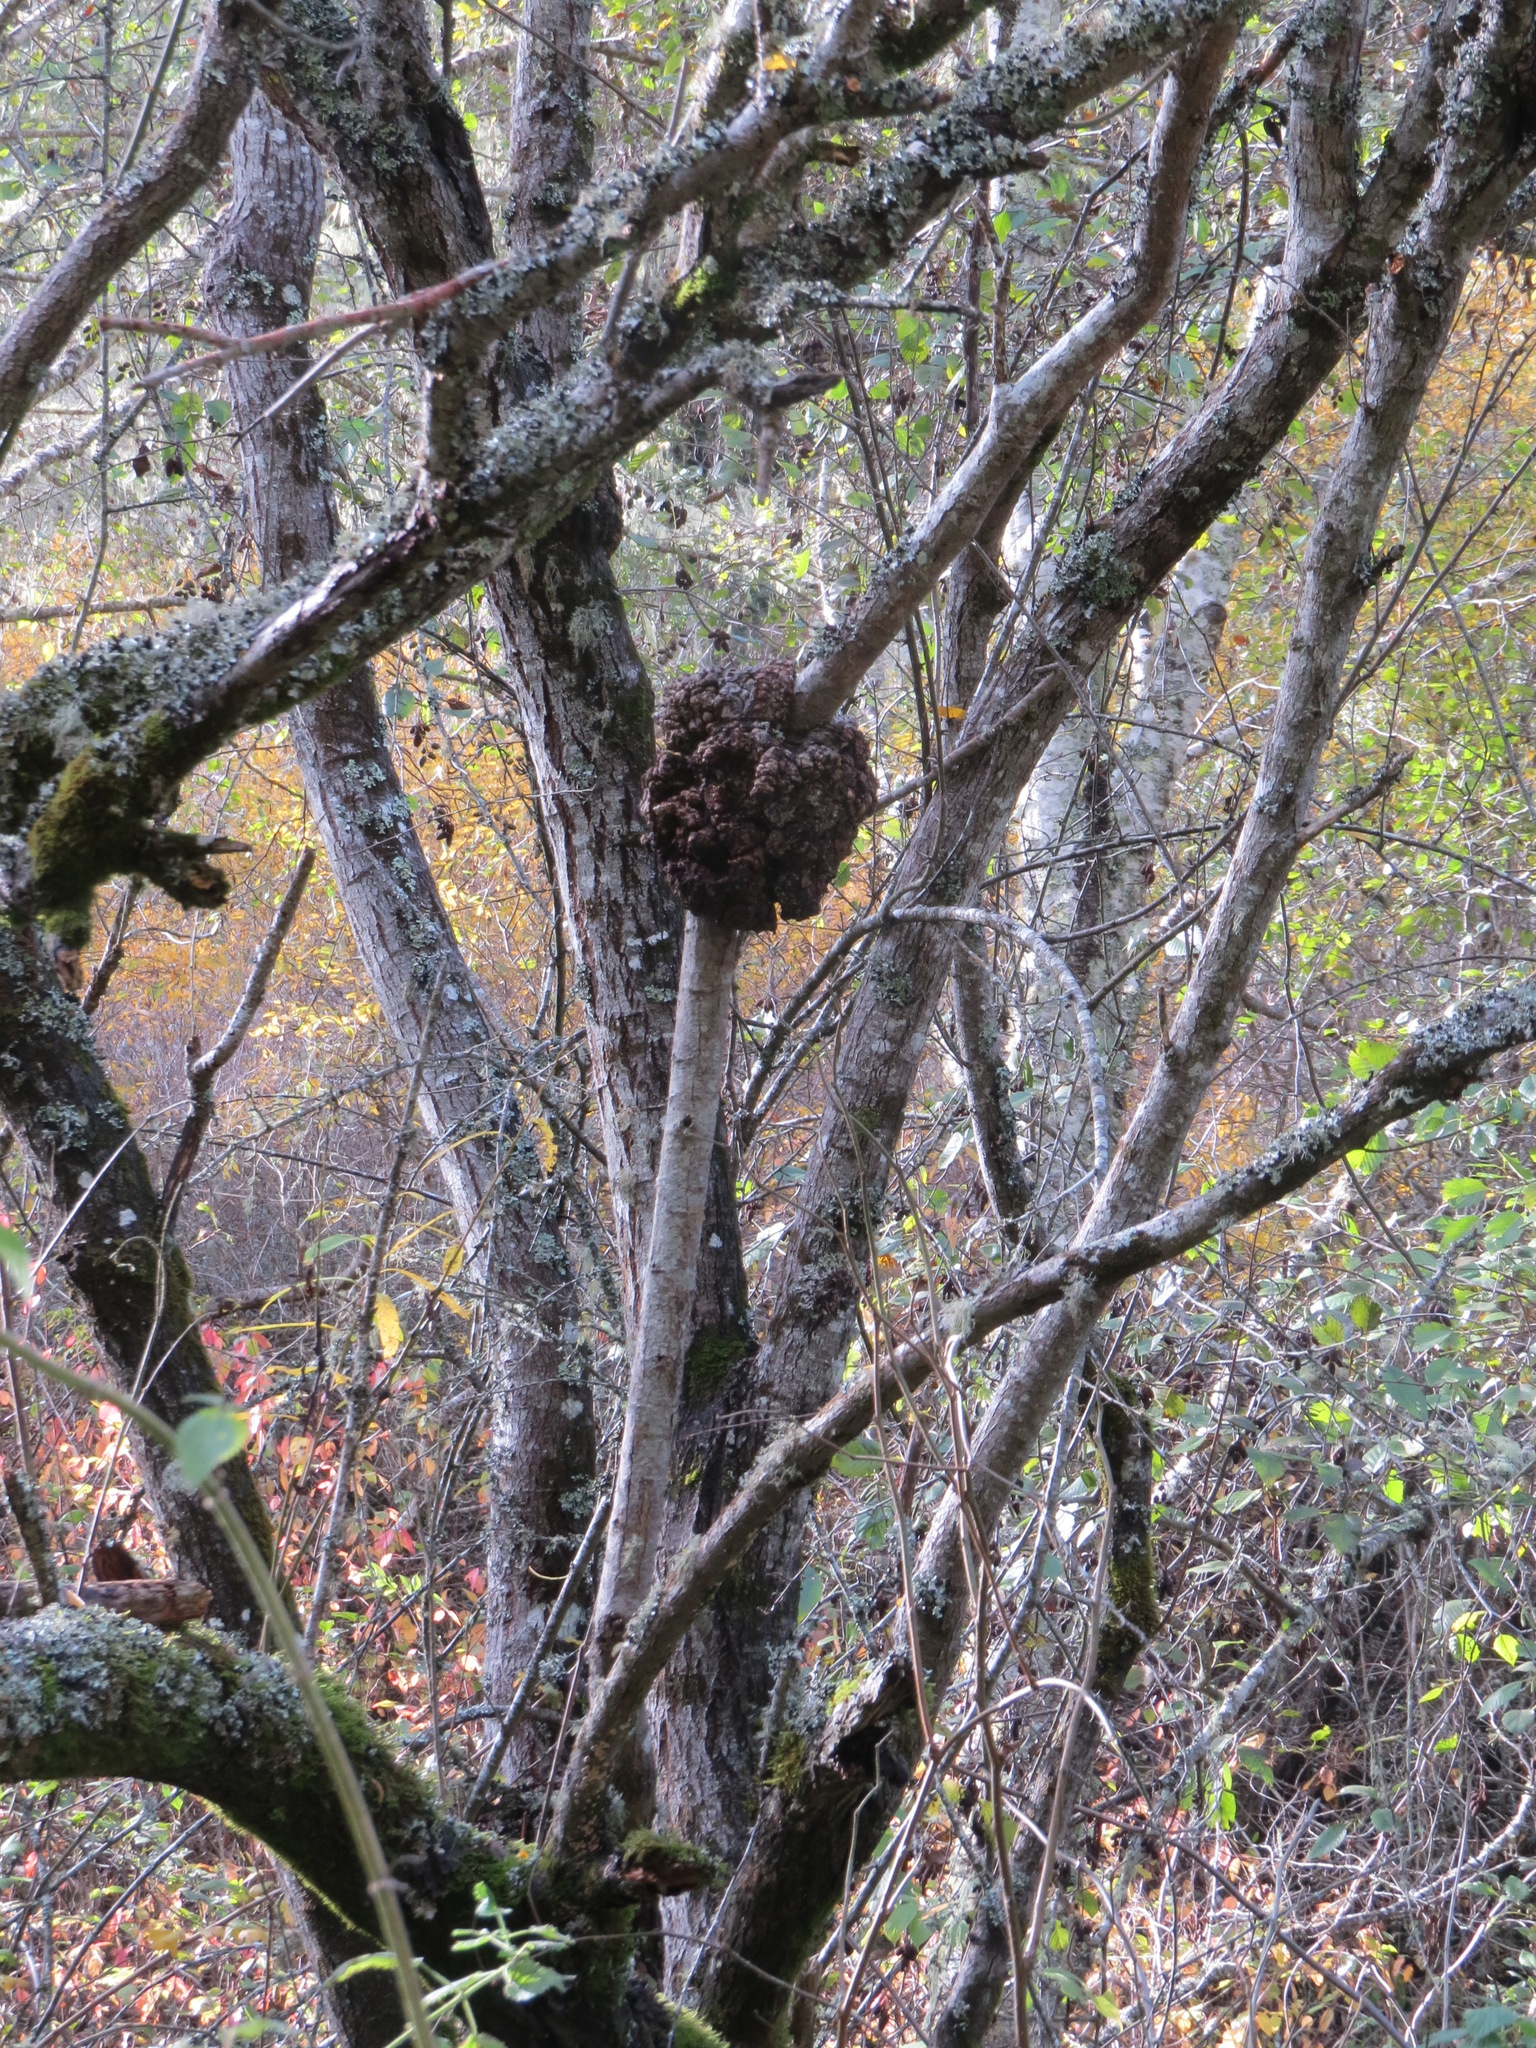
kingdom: Bacteria
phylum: Proteobacteria
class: Alphaproteobacteria
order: Rhizobiales
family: Rhizobiaceae
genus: Rhizobium
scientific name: Rhizobium Agrobacterium radiobacter
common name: Bacterial crown gall
